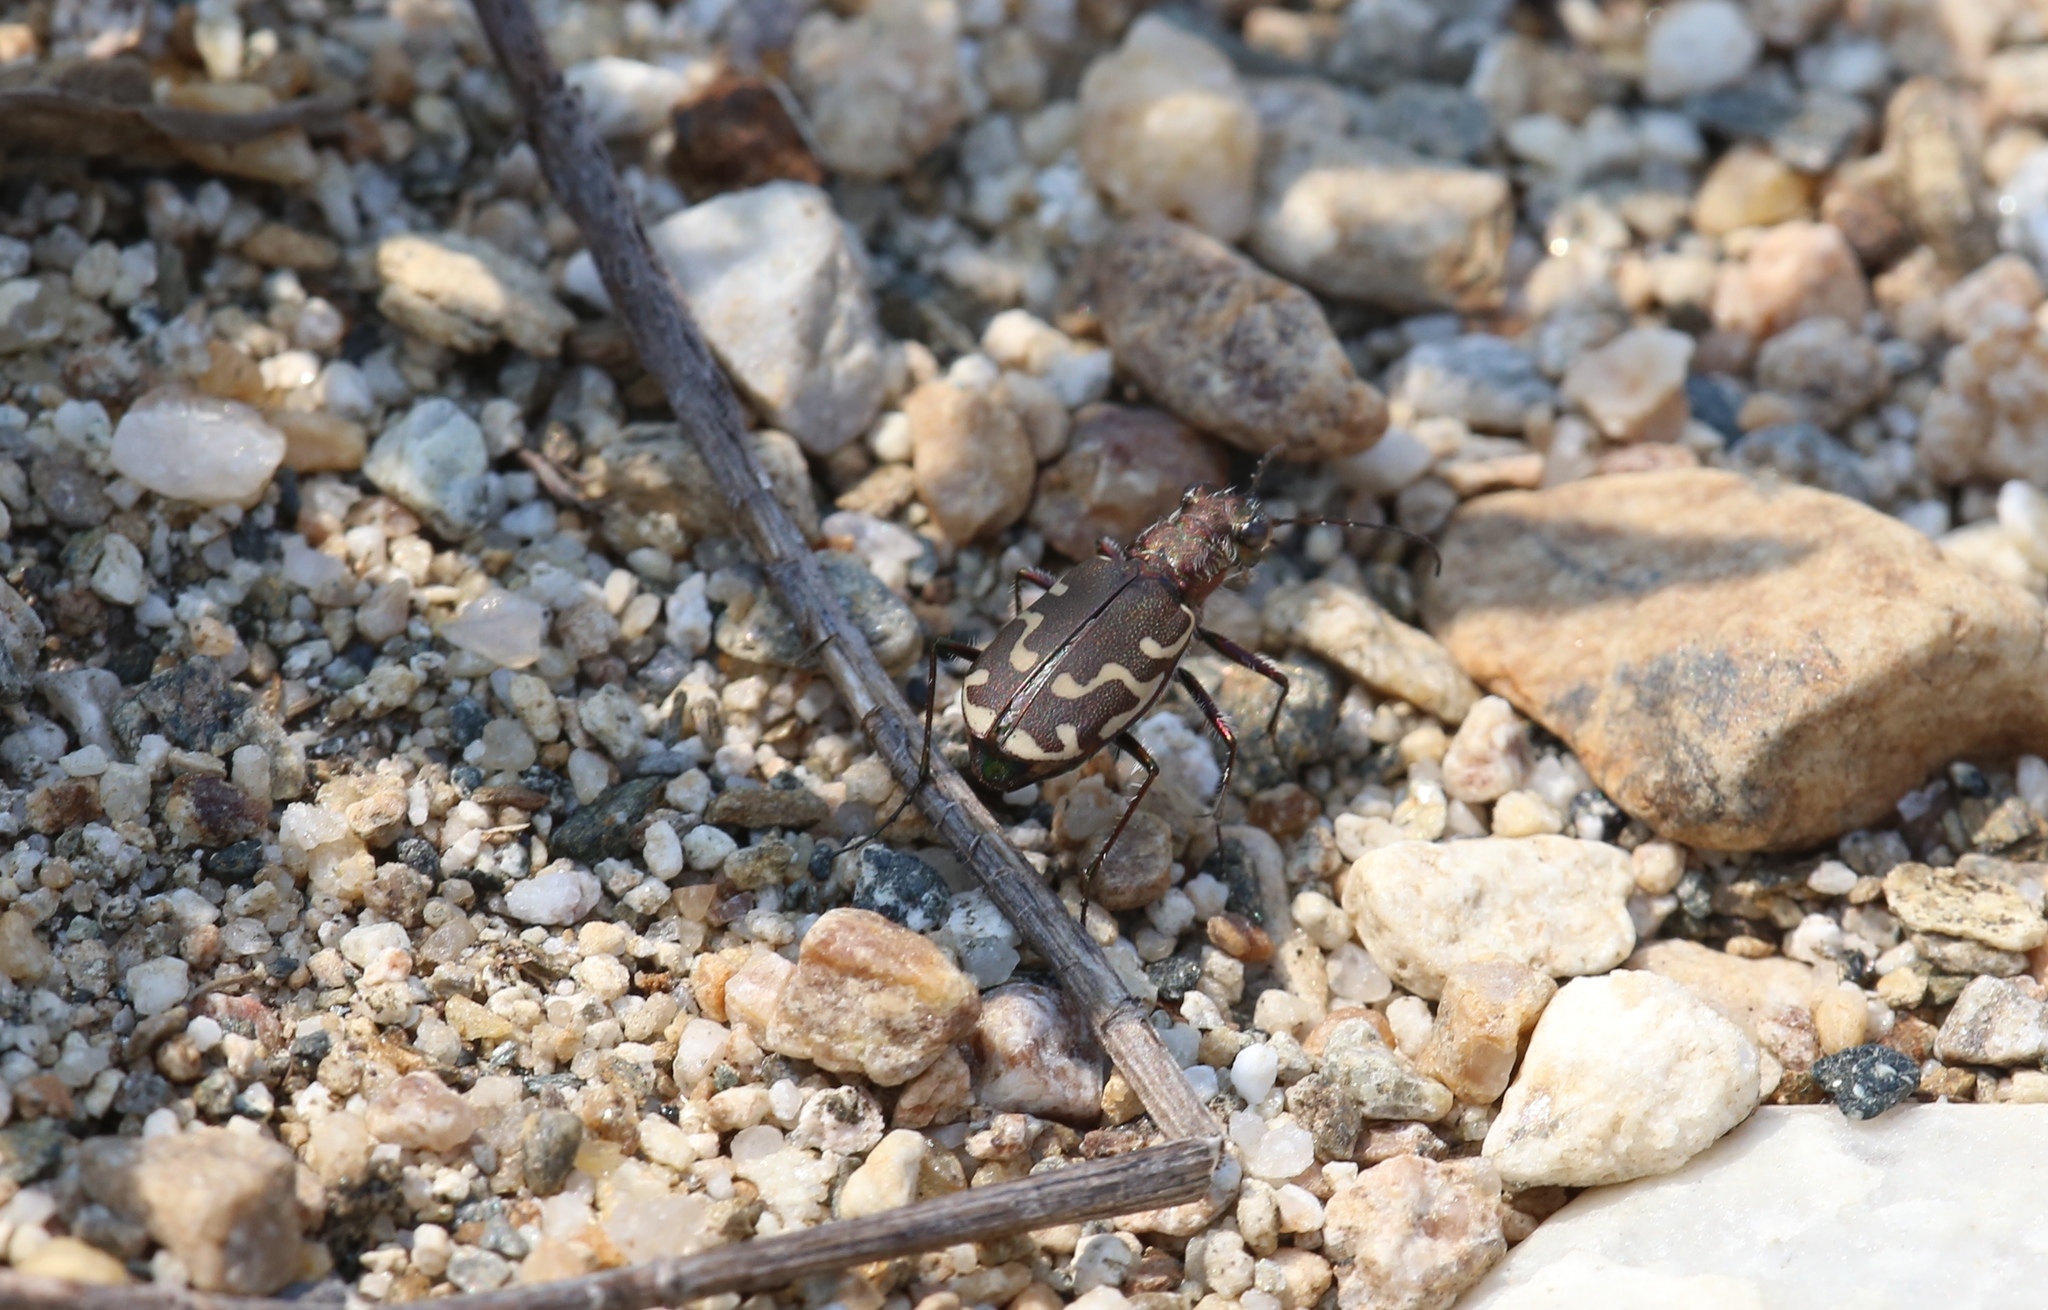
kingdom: Animalia
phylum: Arthropoda
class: Insecta
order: Coleoptera
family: Carabidae
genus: Cicindela
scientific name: Cicindela repanda
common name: Bronzed tiger beetle
